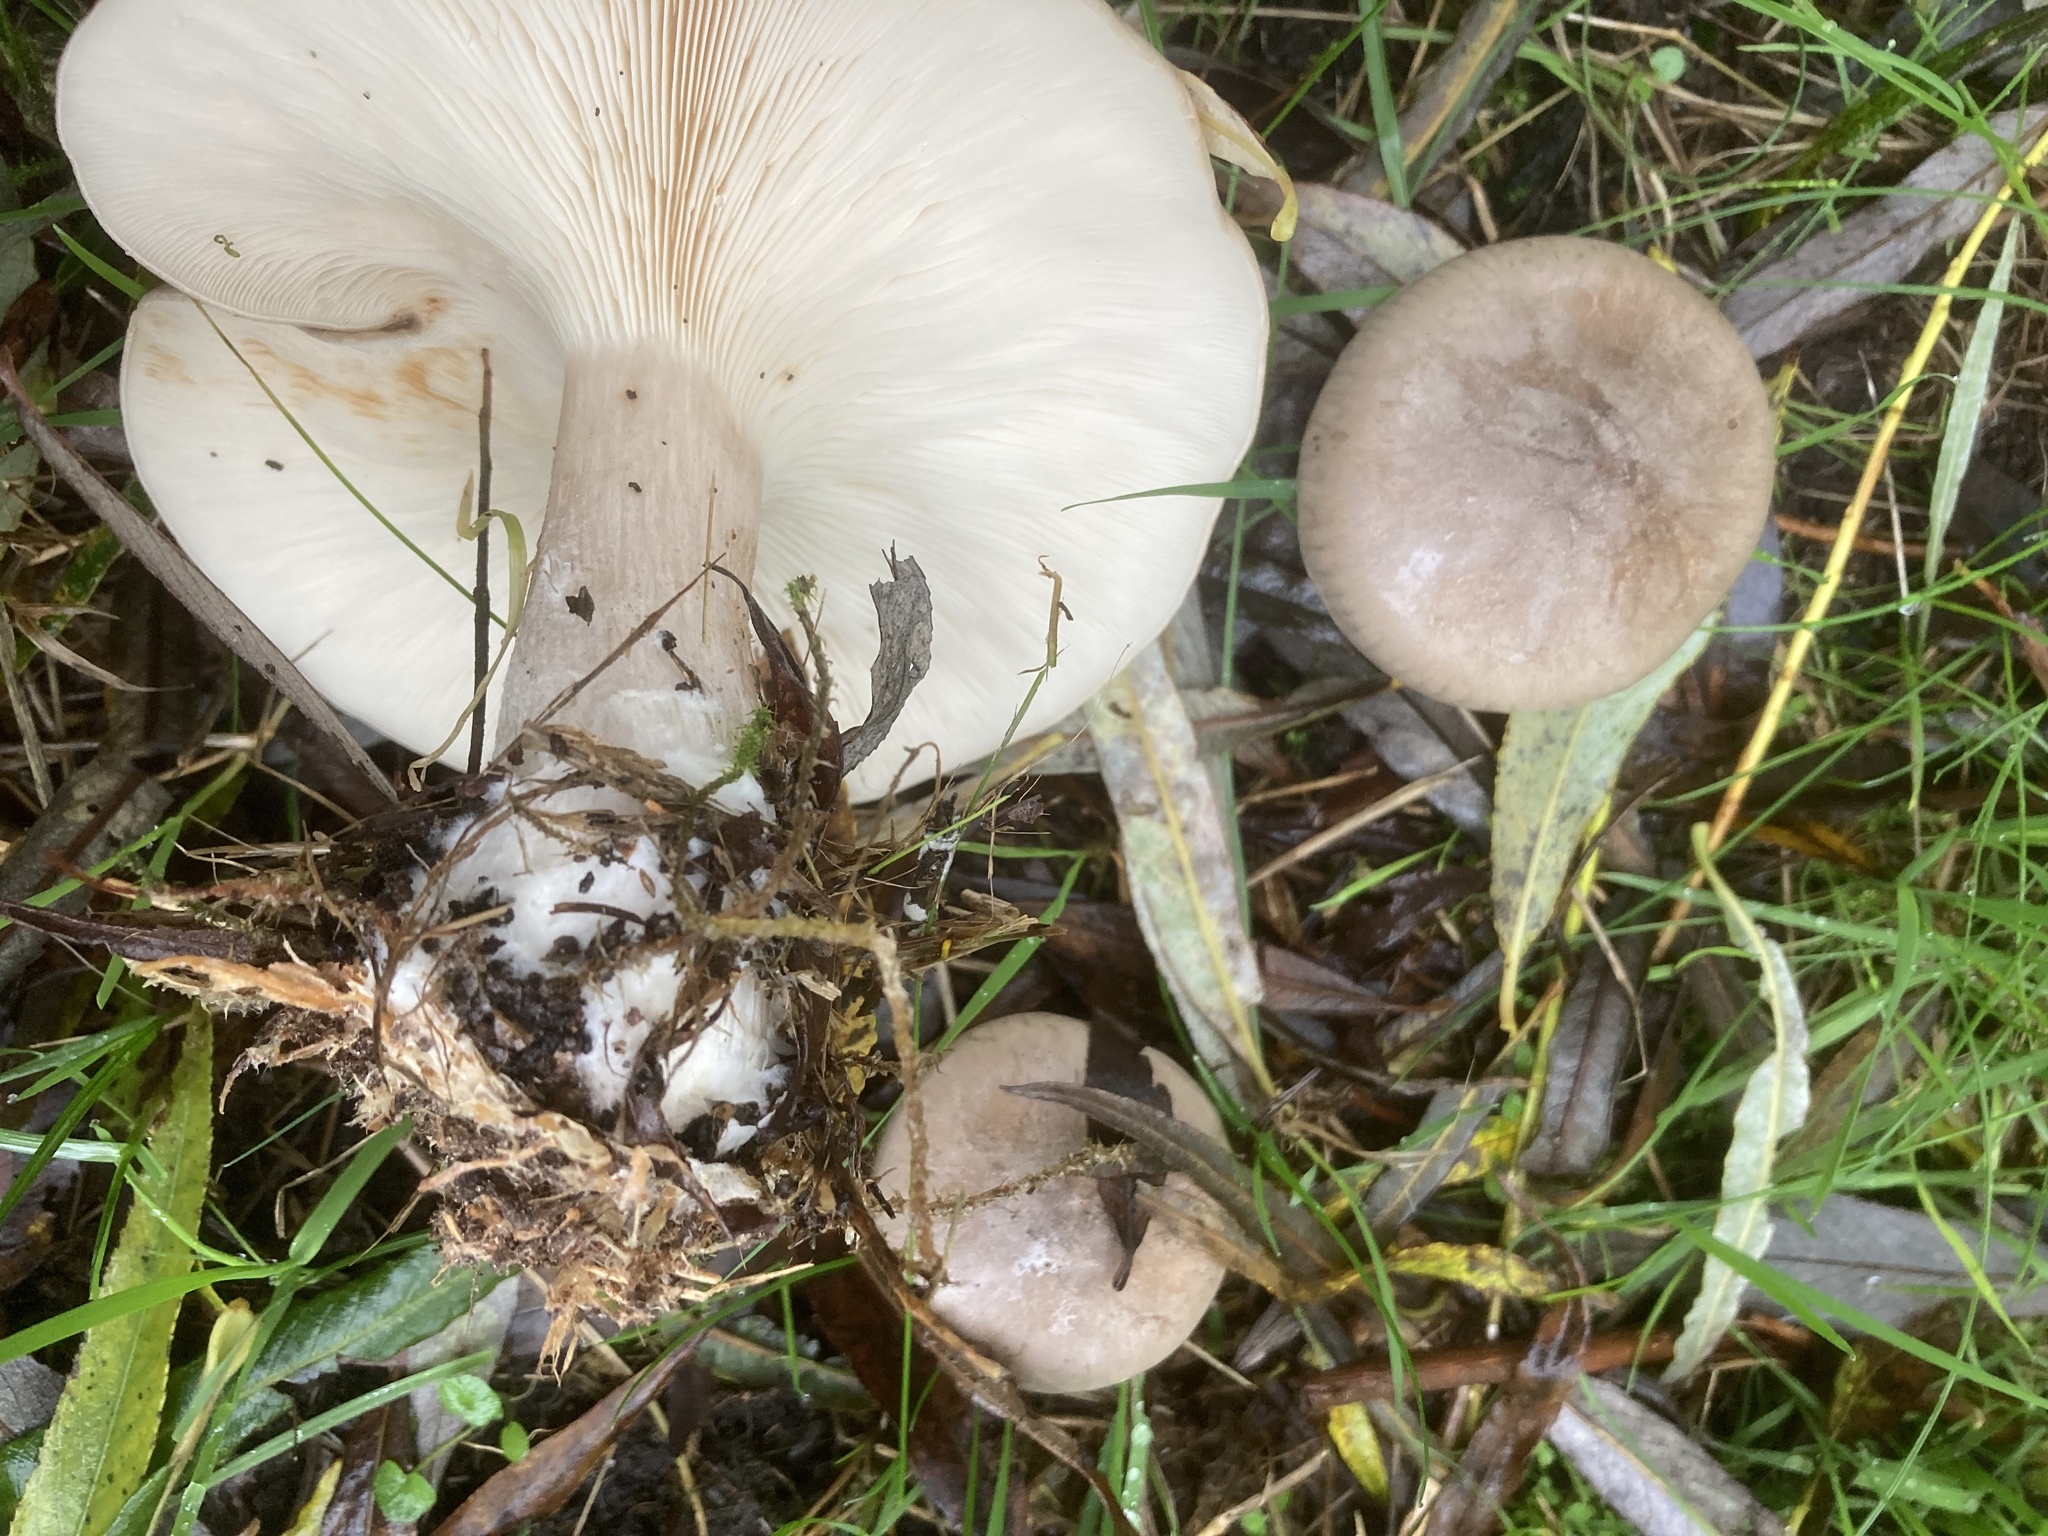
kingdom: Fungi
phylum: Basidiomycota
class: Agaricomycetes
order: Agaricales
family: Tricholomataceae
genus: Clitocybe
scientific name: Clitocybe nebularis
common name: Clouded agaric
